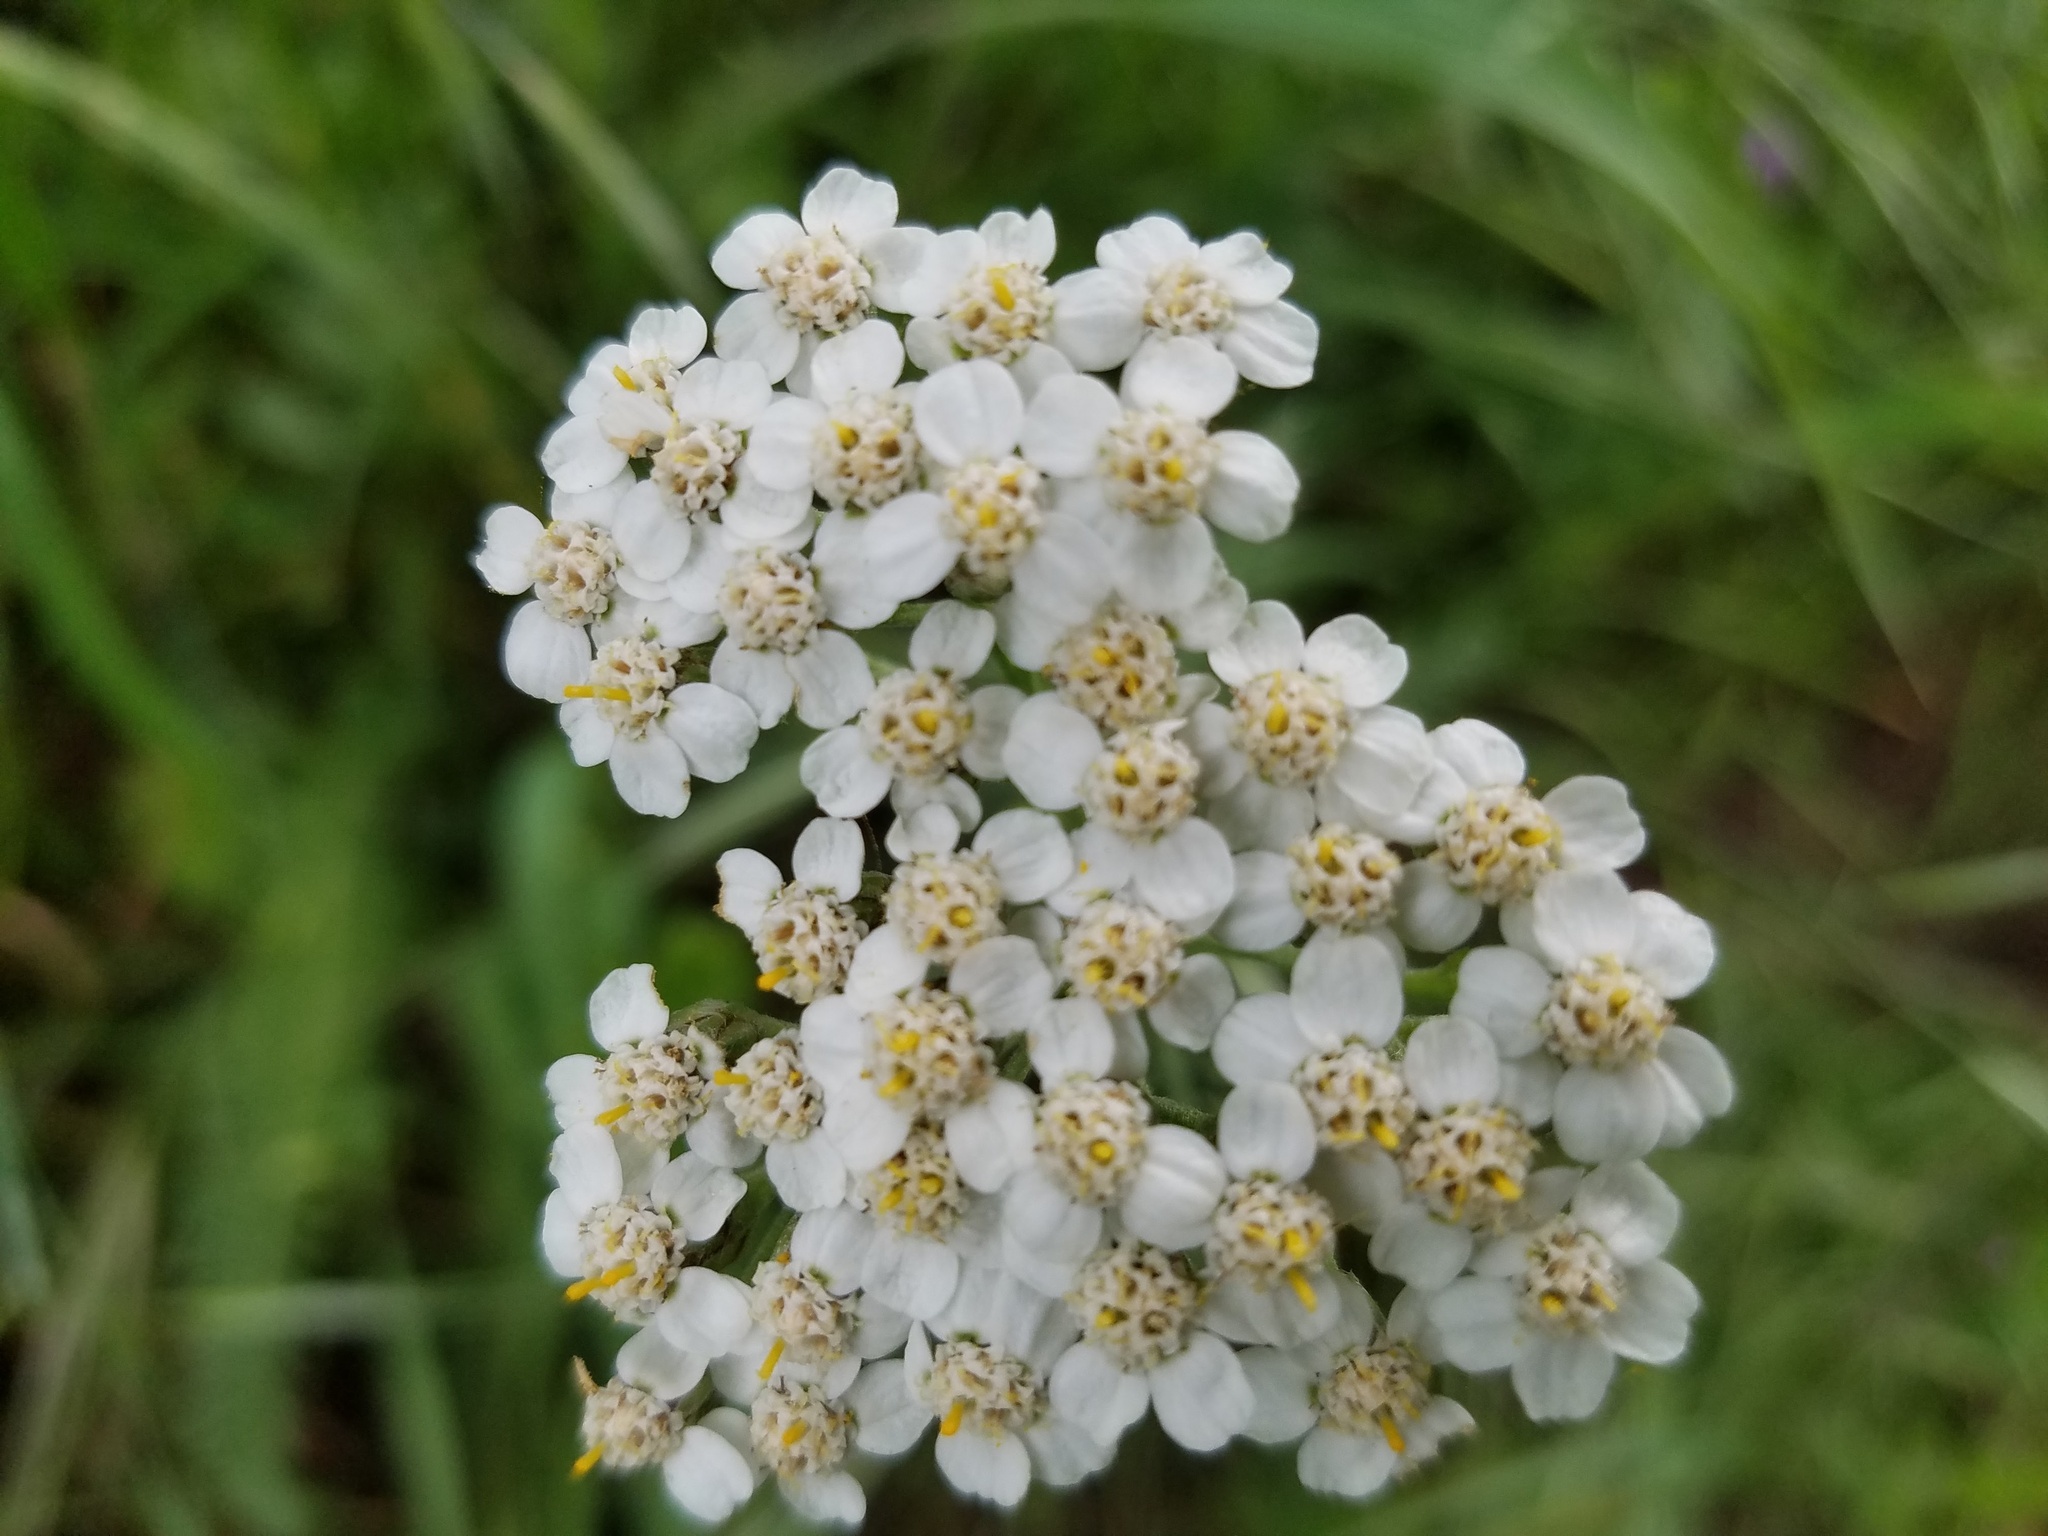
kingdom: Plantae
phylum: Tracheophyta
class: Magnoliopsida
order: Asterales
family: Asteraceae
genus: Achillea
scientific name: Achillea millefolium
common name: Yarrow
